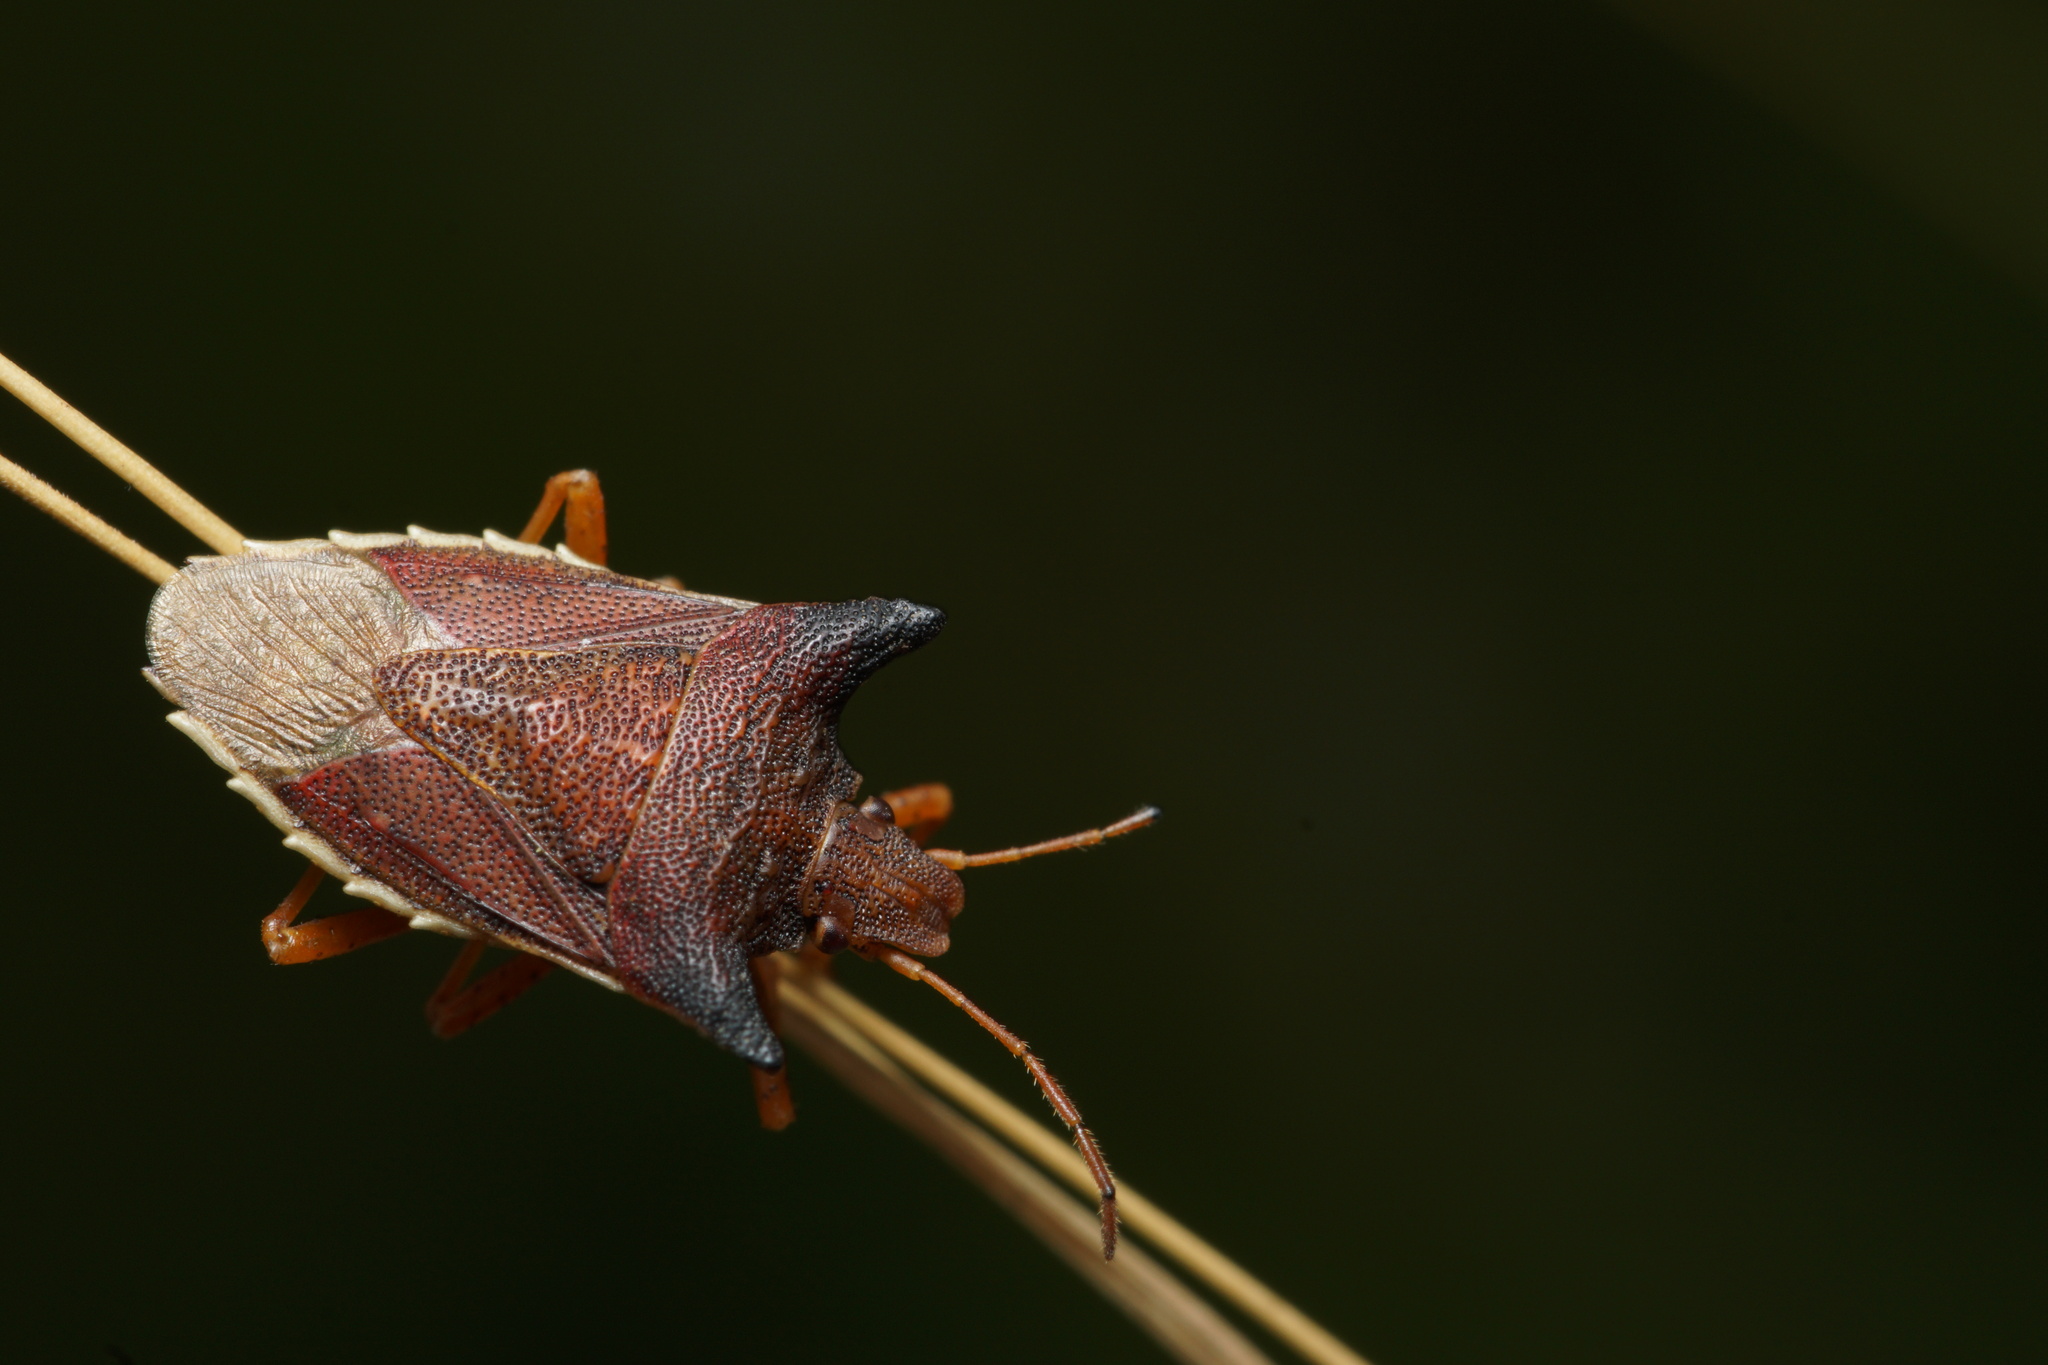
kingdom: Animalia
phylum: Arthropoda
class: Insecta
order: Hemiptera
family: Pentatomidae
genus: Caonabo
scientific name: Caonabo pseudoscylax
